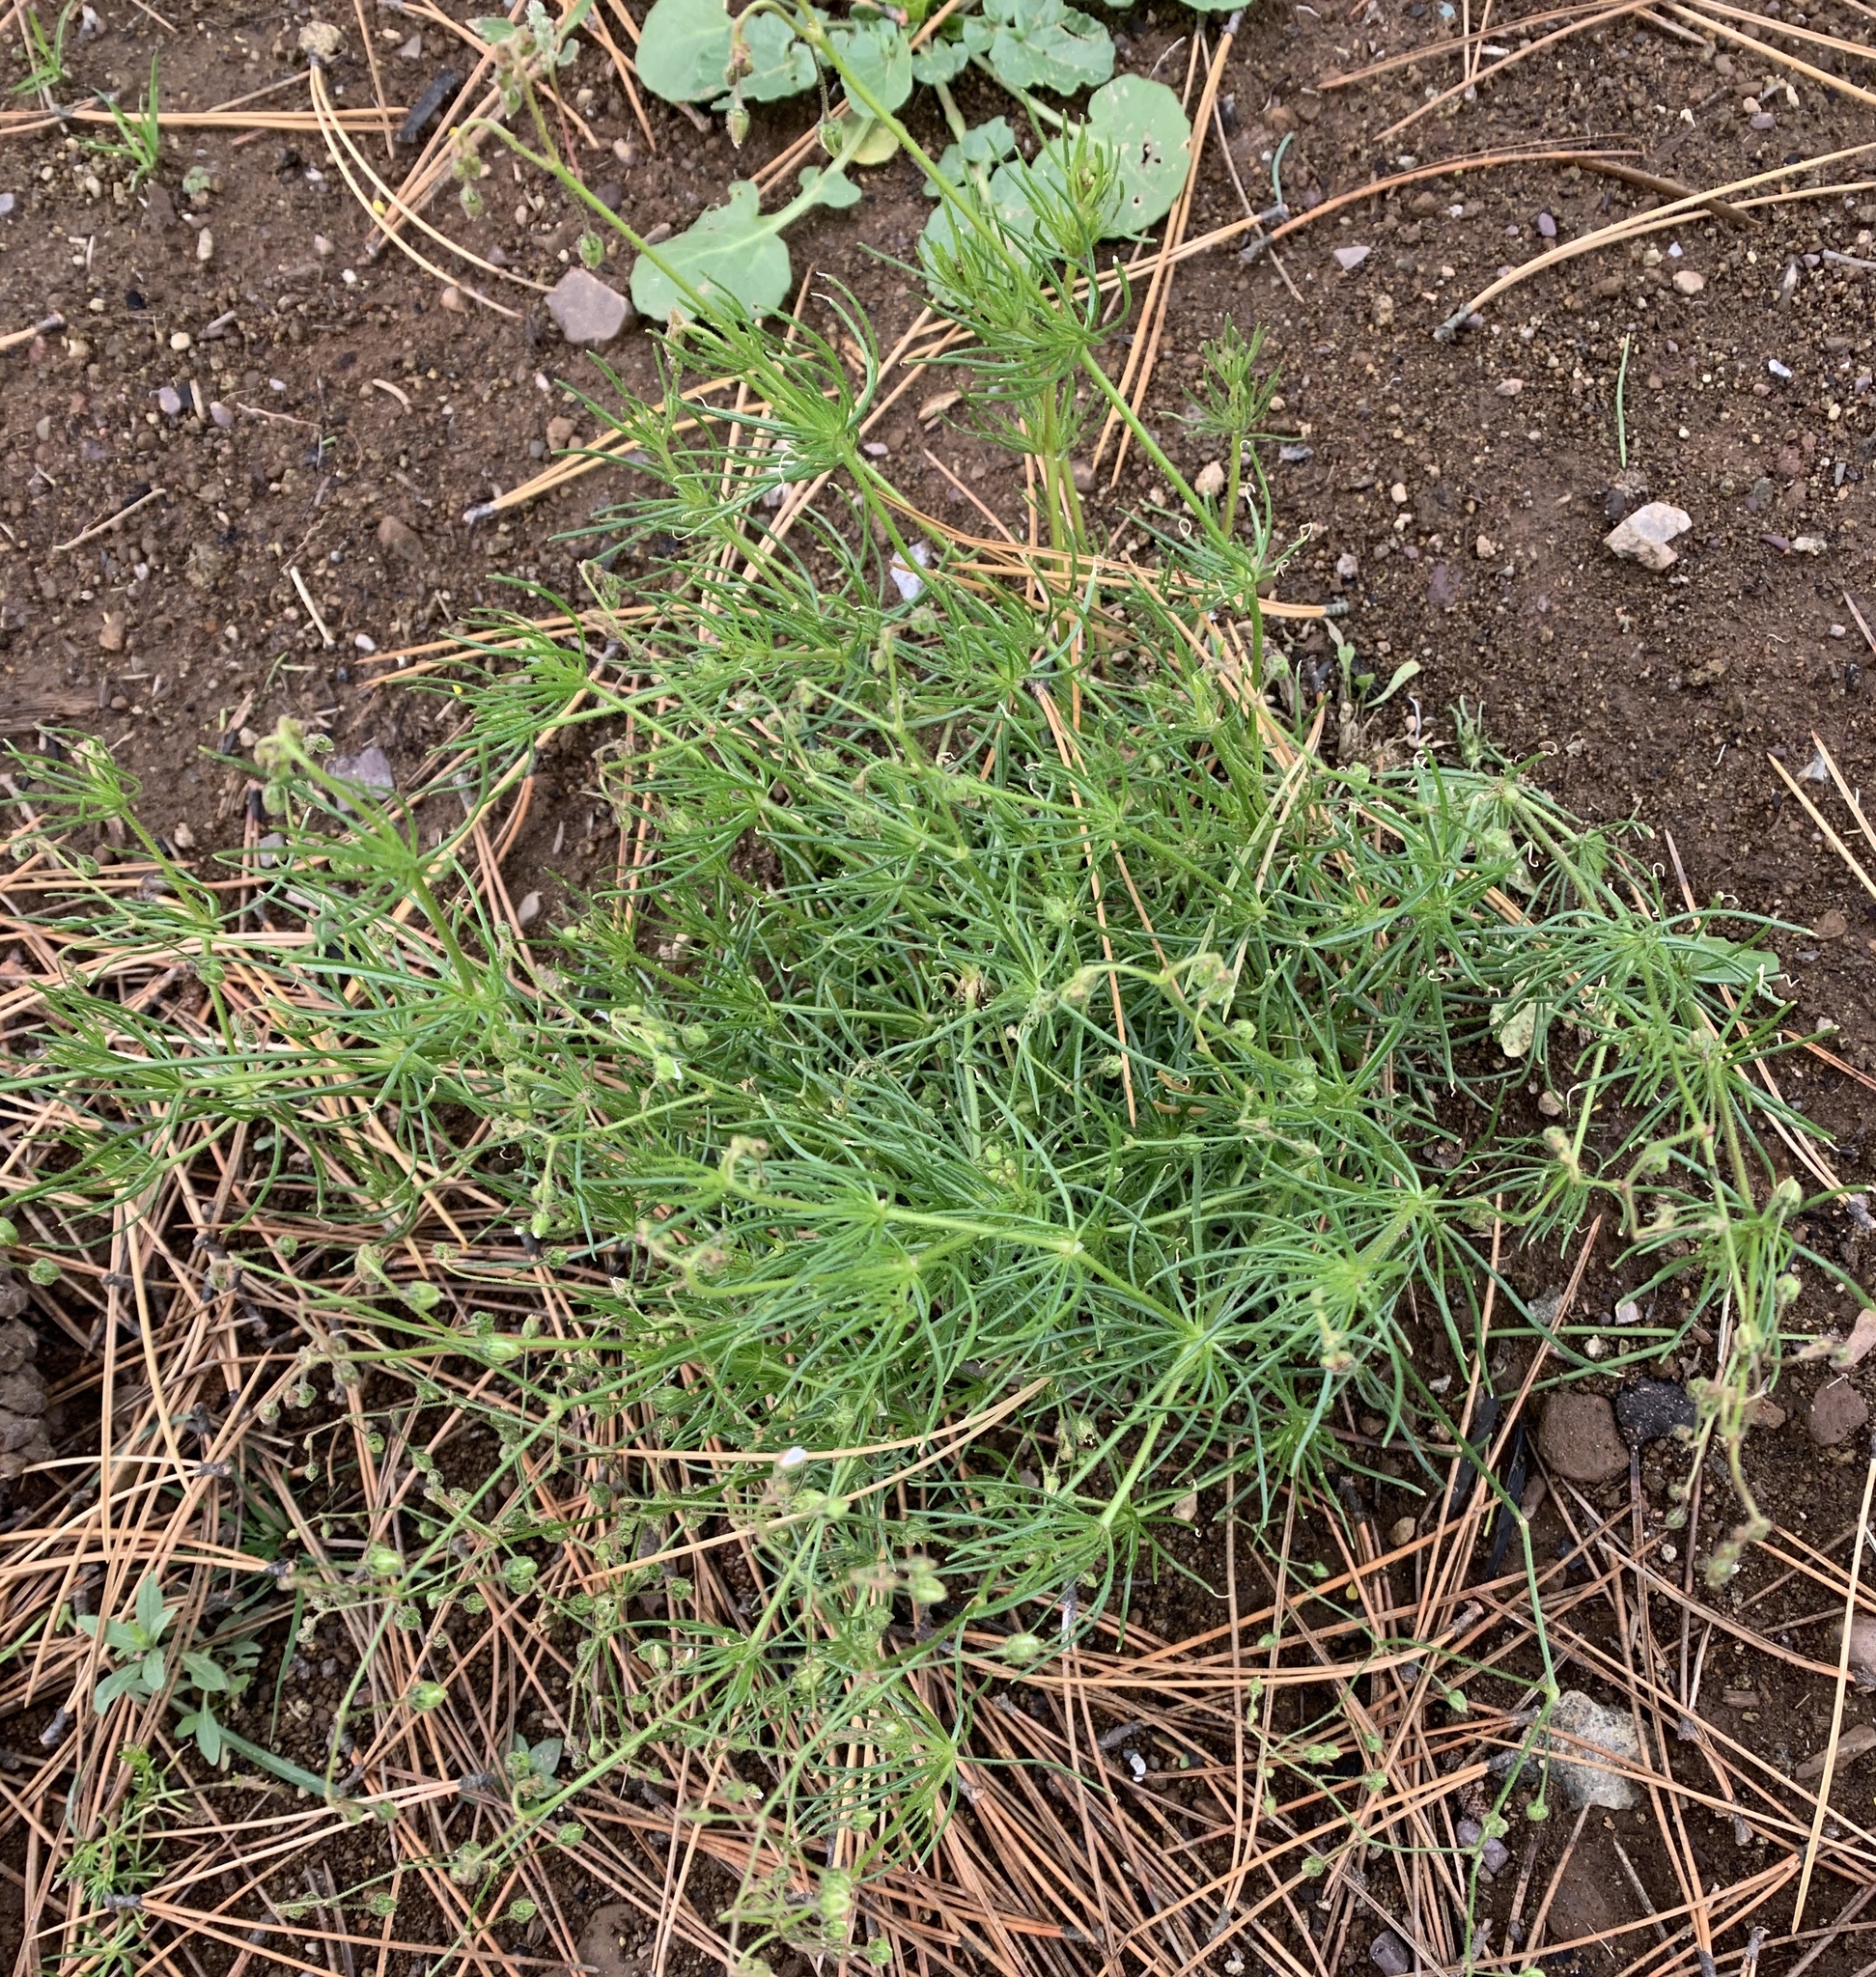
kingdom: Plantae
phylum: Tracheophyta
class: Magnoliopsida
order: Caryophyllales
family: Caryophyllaceae
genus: Spergula
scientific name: Spergula arvensis
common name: Corn spurrey
